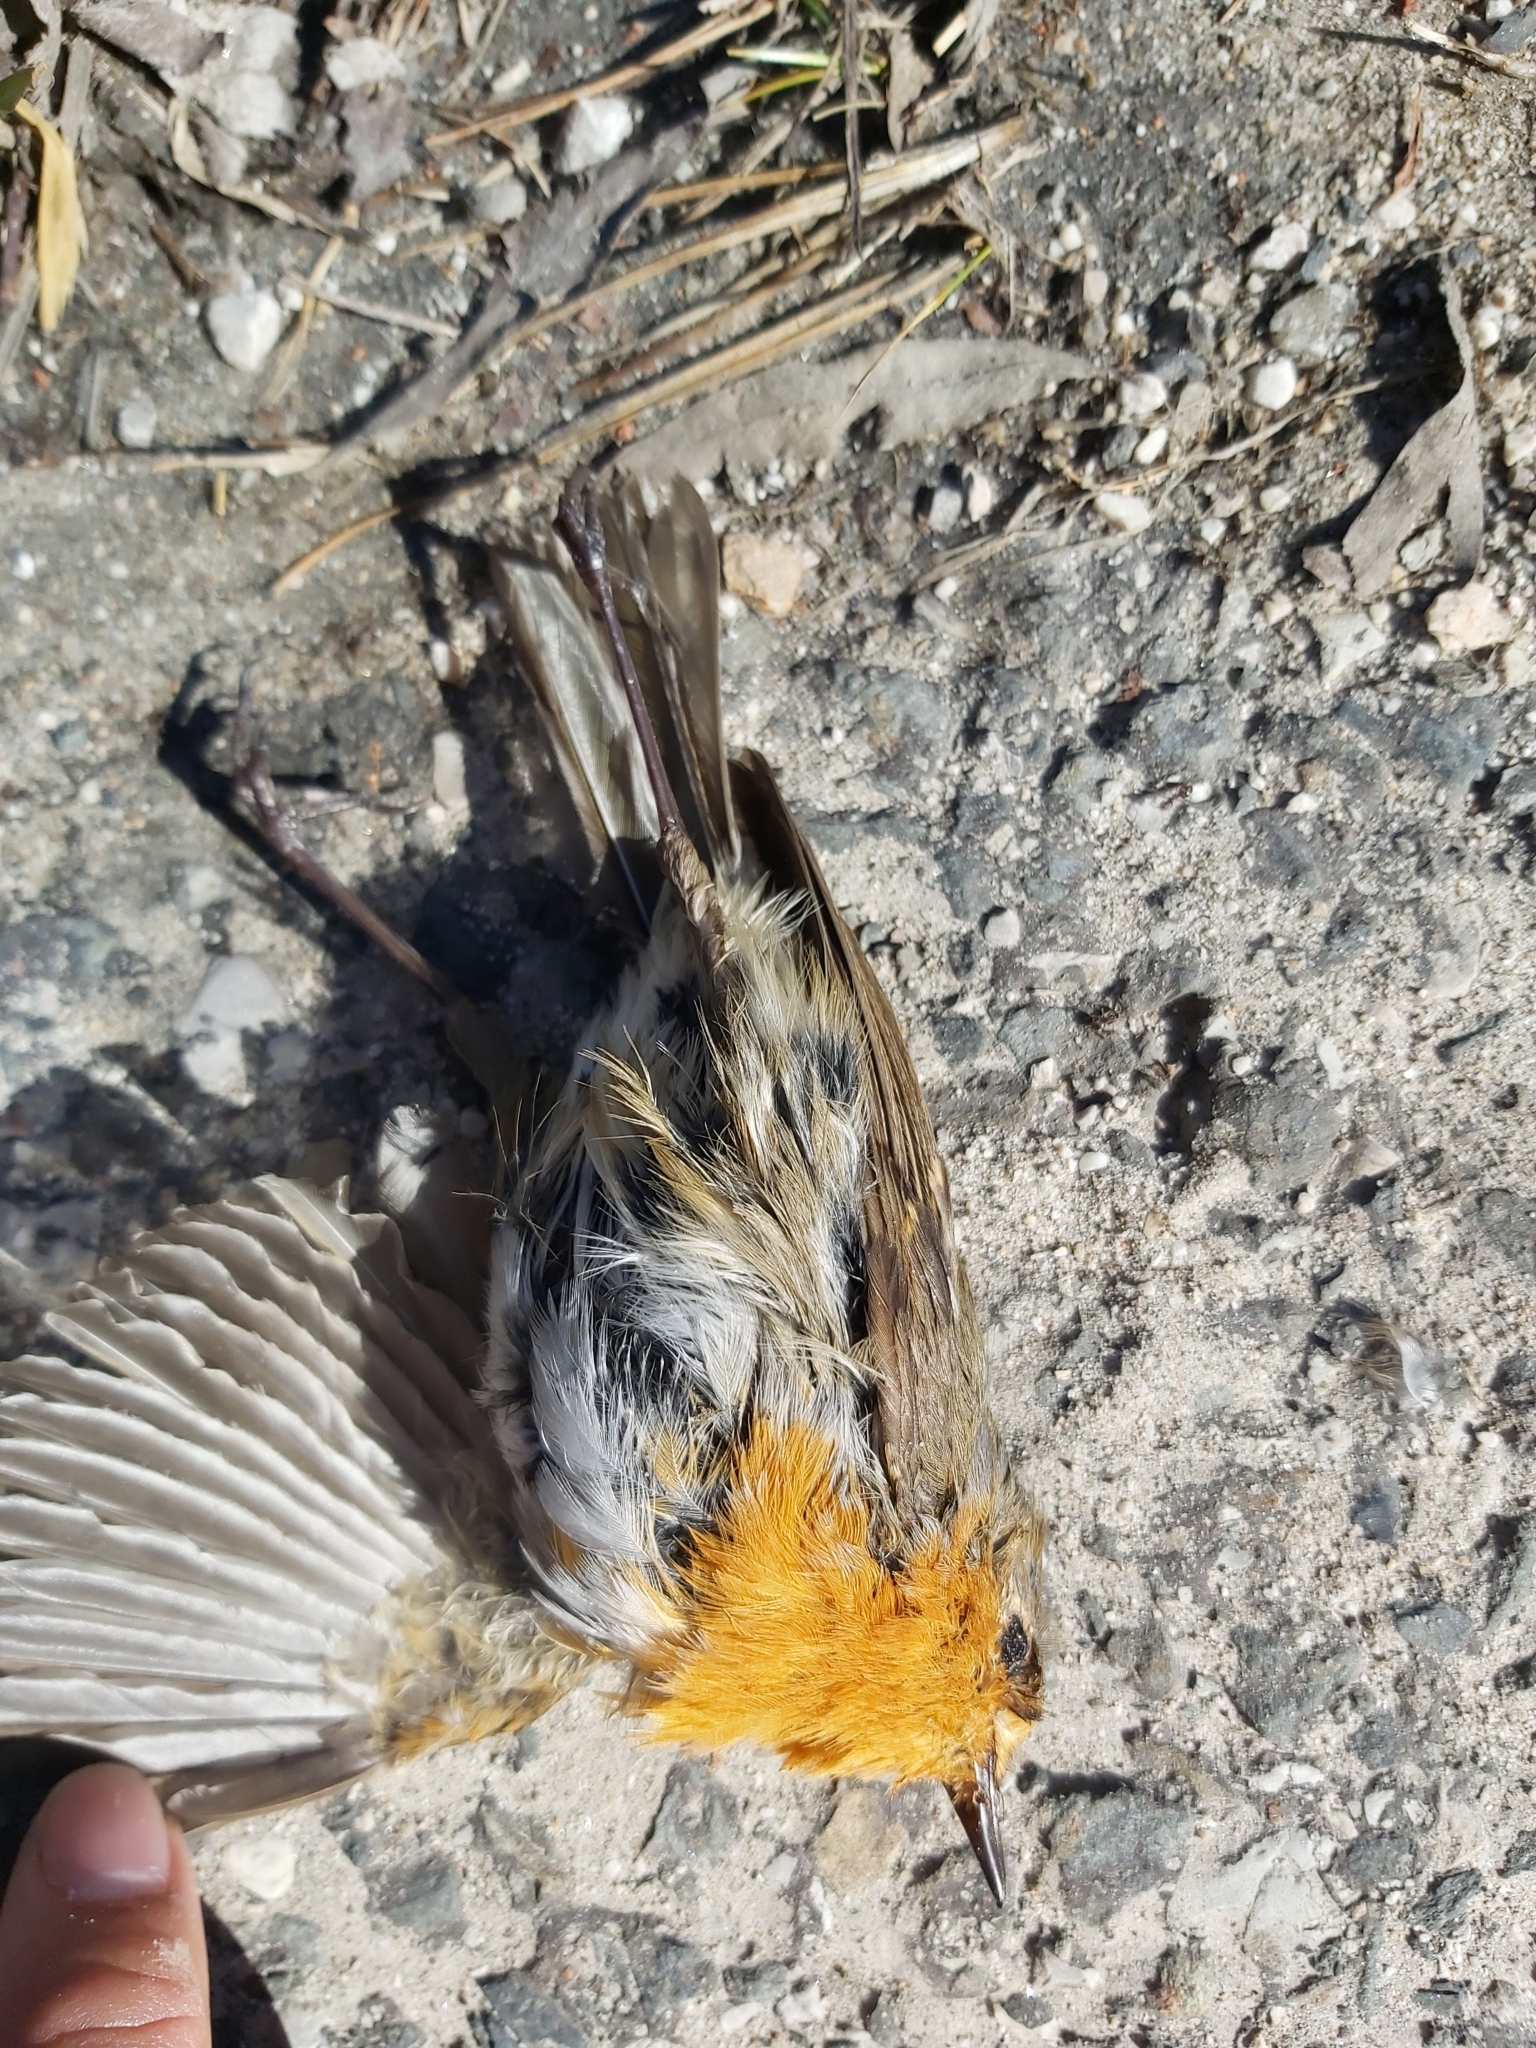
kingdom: Animalia
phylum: Chordata
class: Aves
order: Passeriformes
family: Muscicapidae
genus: Erithacus
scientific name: Erithacus rubecula
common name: European robin
